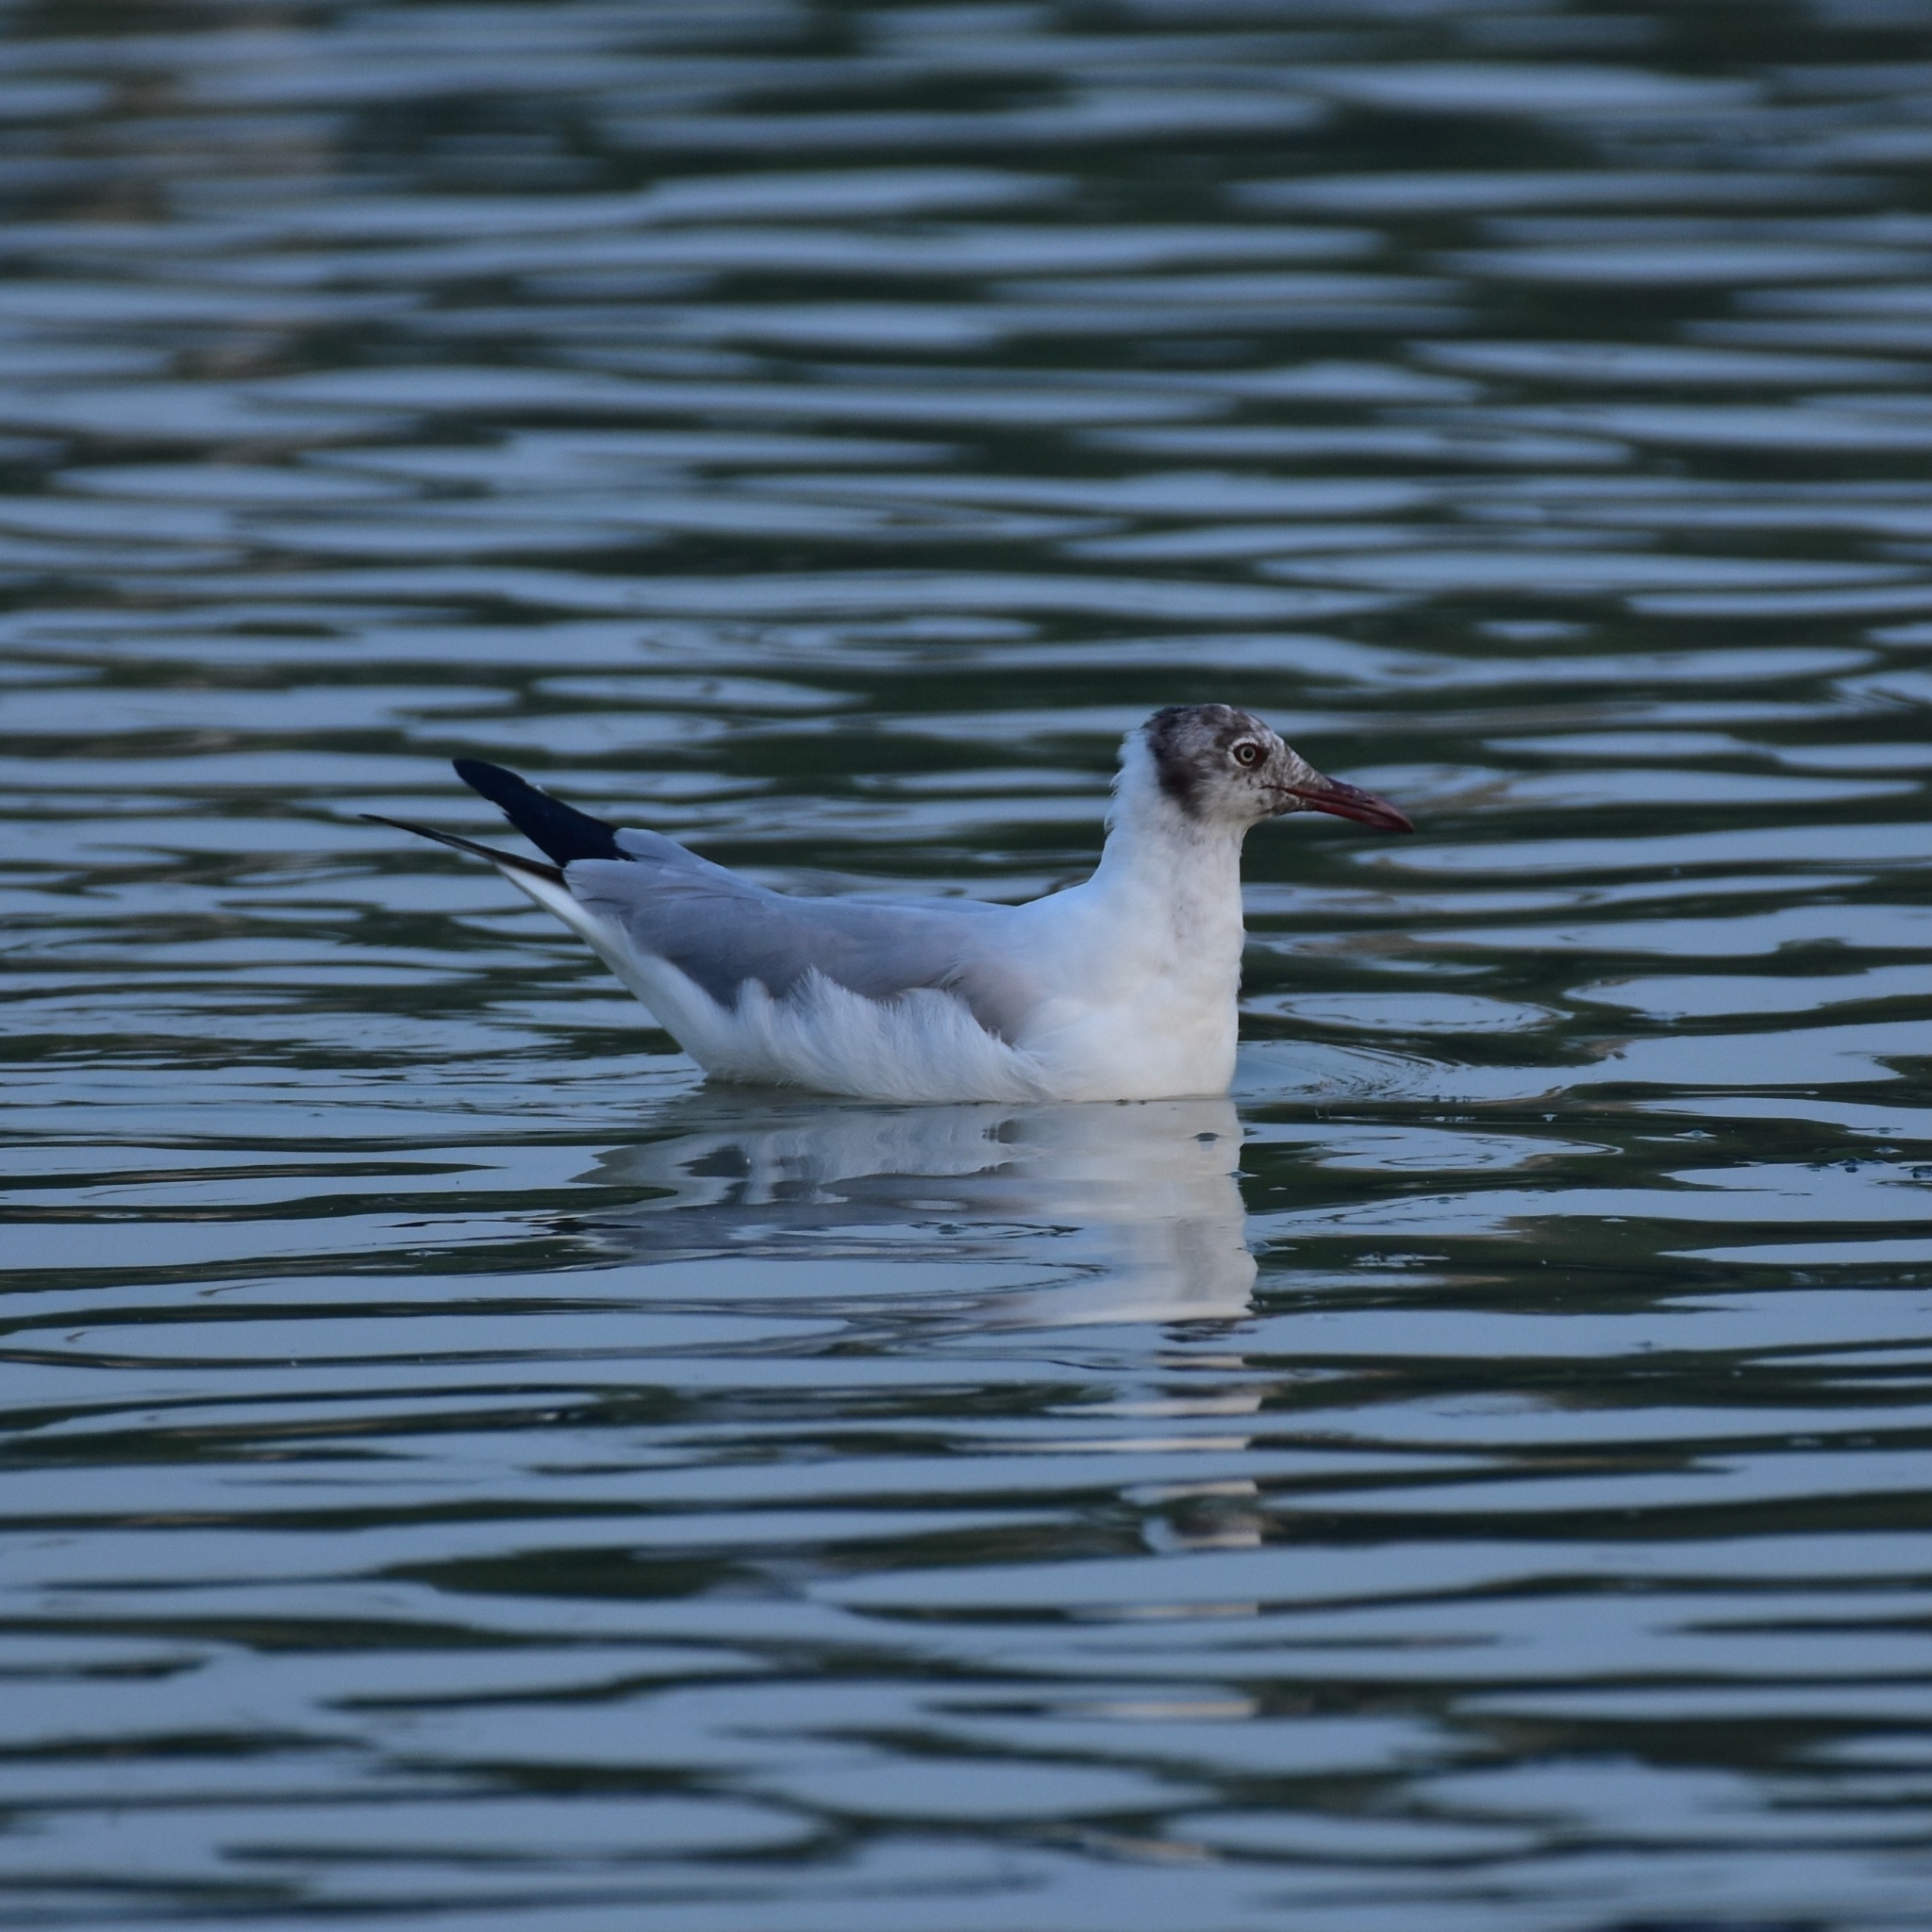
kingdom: Animalia
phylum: Chordata
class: Aves
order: Charadriiformes
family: Laridae
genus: Chroicocephalus
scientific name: Chroicocephalus brunnicephalus
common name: Brown-headed gull
